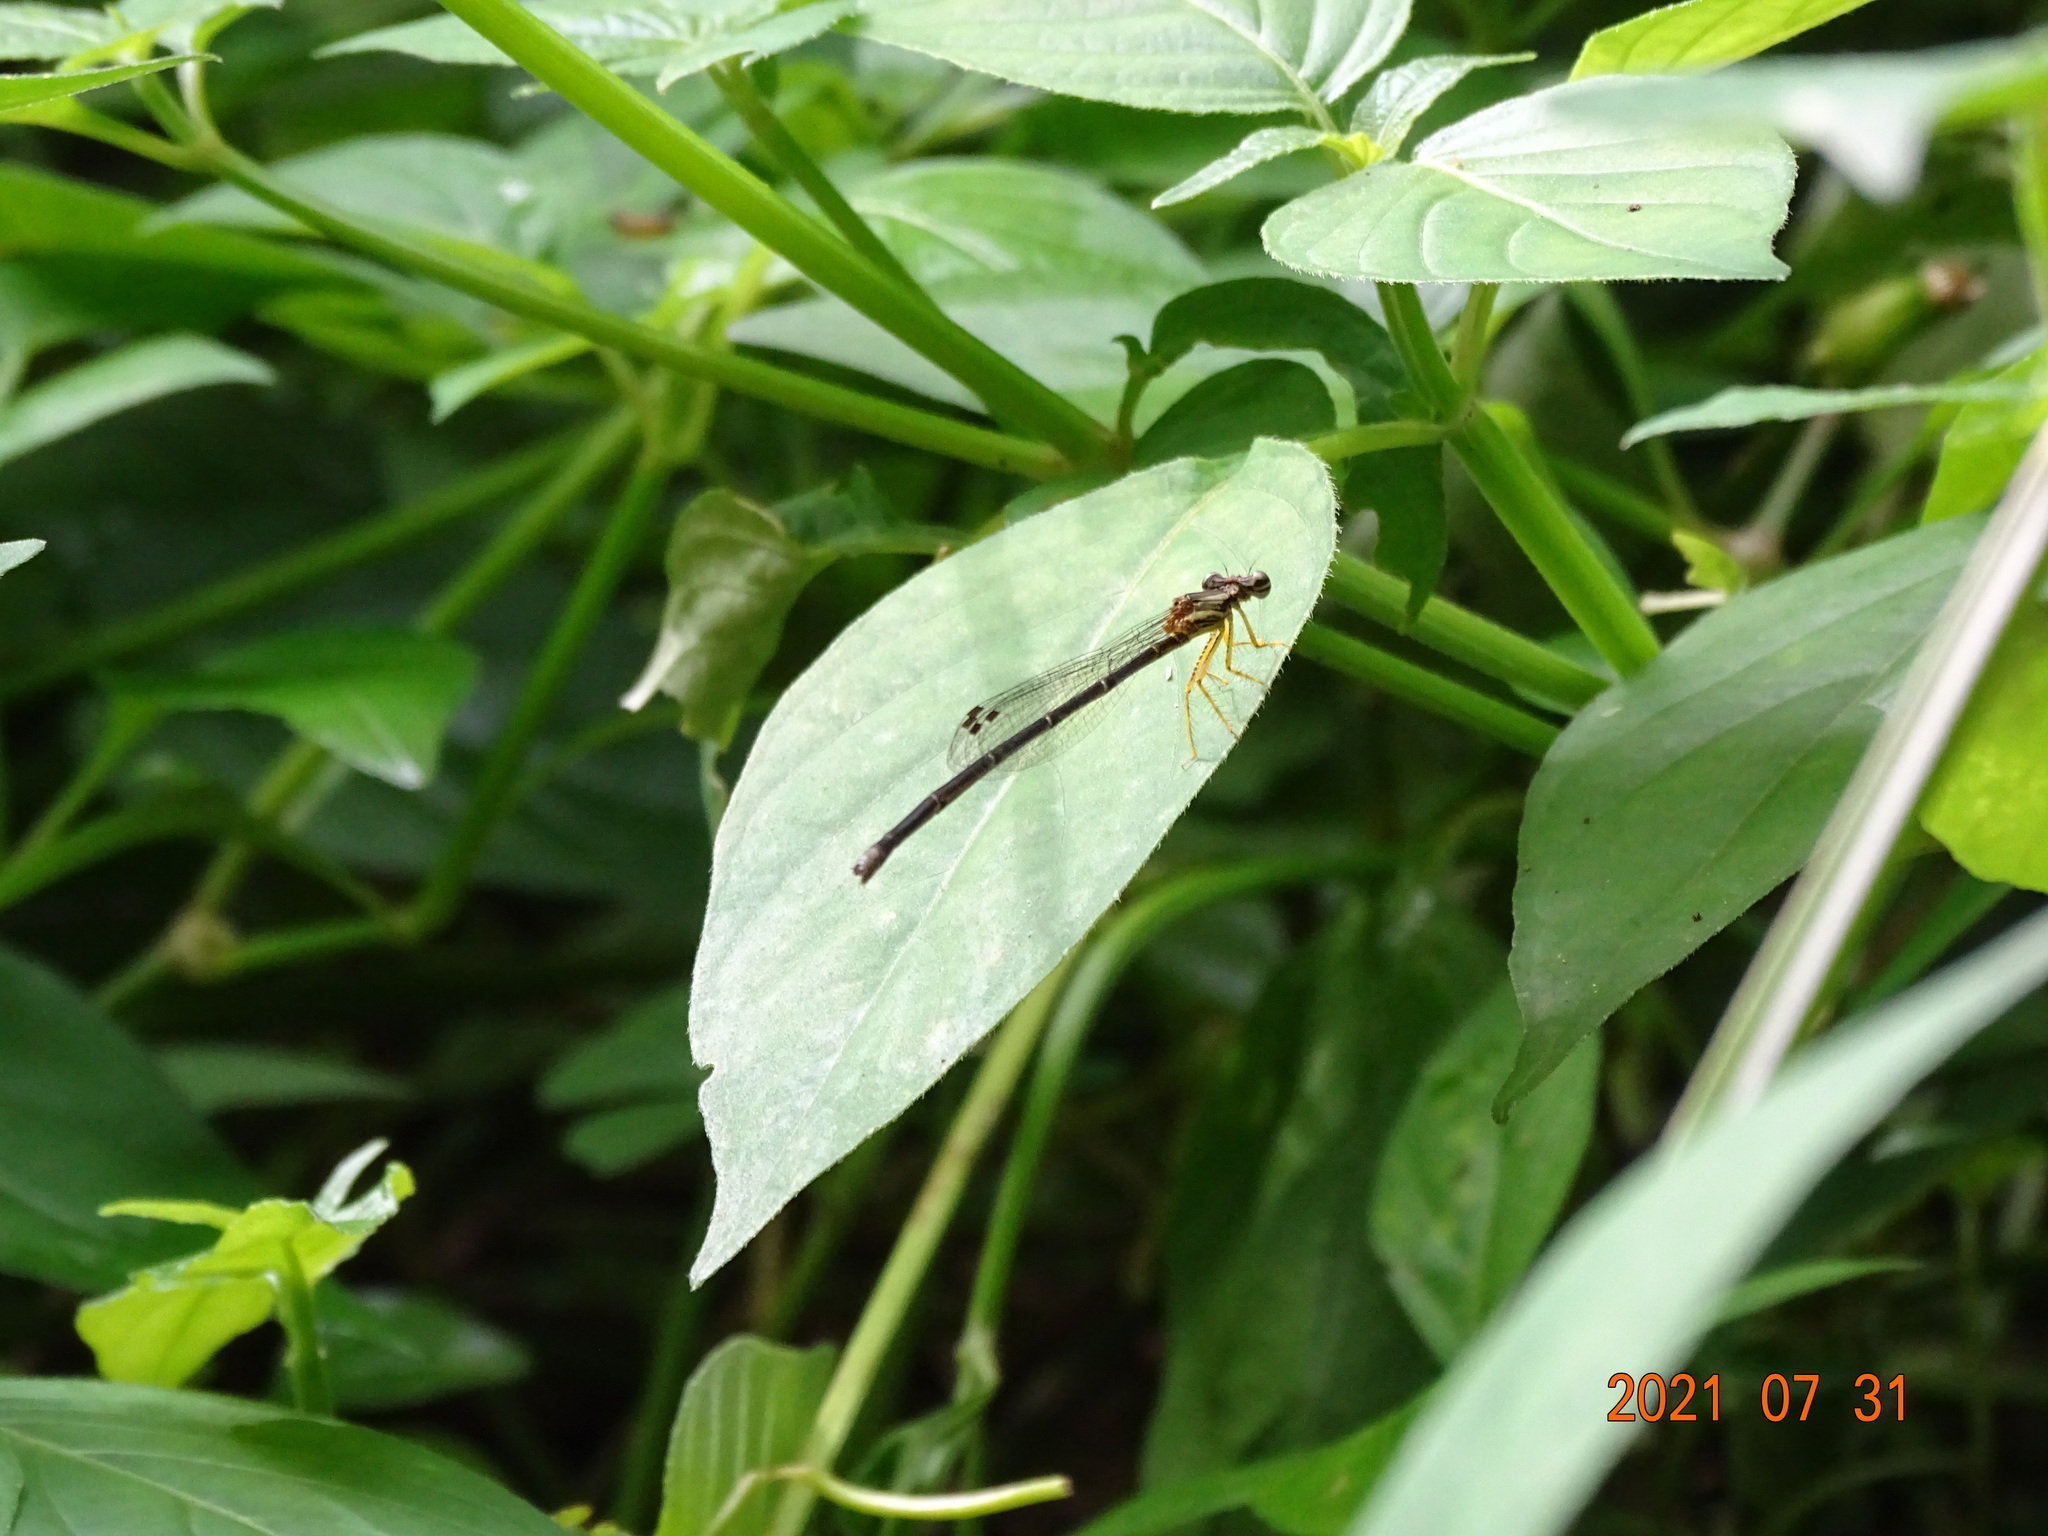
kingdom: Animalia
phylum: Arthropoda
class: Insecta
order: Odonata
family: Platycnemididae
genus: Copera
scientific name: Copera marginipes
